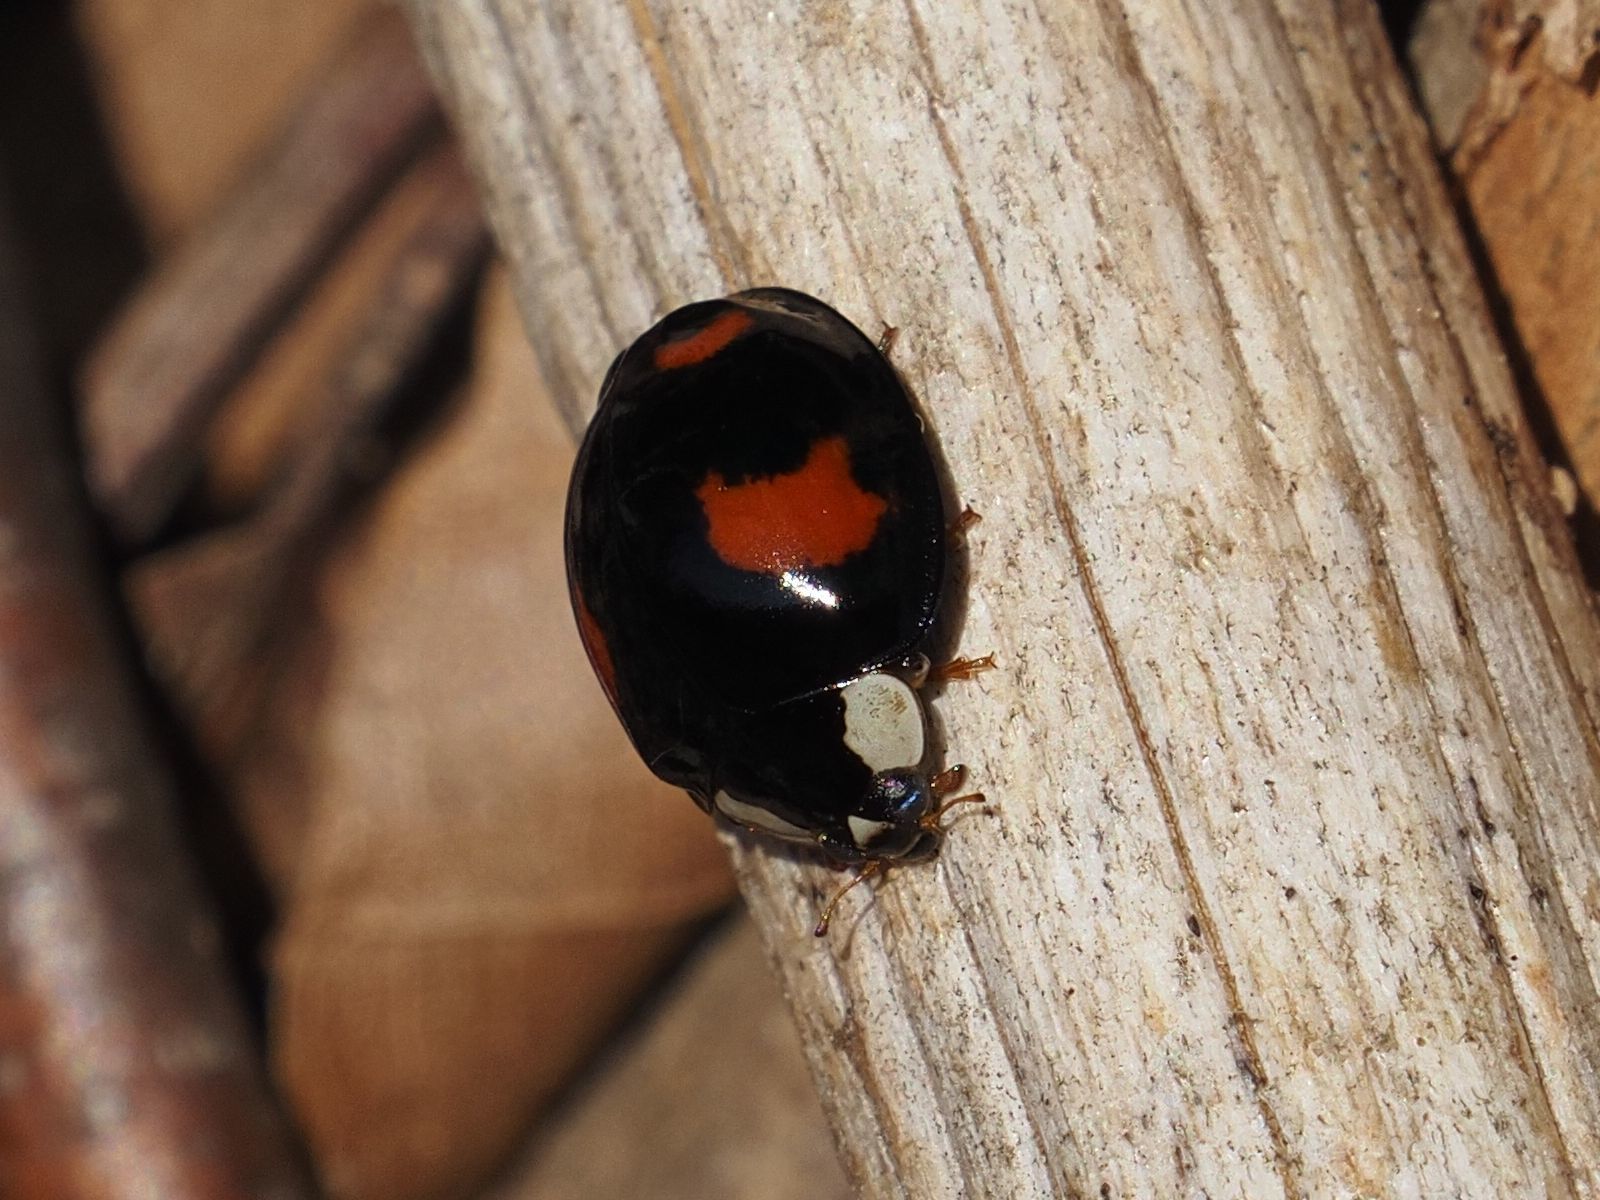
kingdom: Animalia
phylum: Arthropoda
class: Insecta
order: Coleoptera
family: Coccinellidae
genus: Harmonia
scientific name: Harmonia axyridis
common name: Harlequin ladybird
